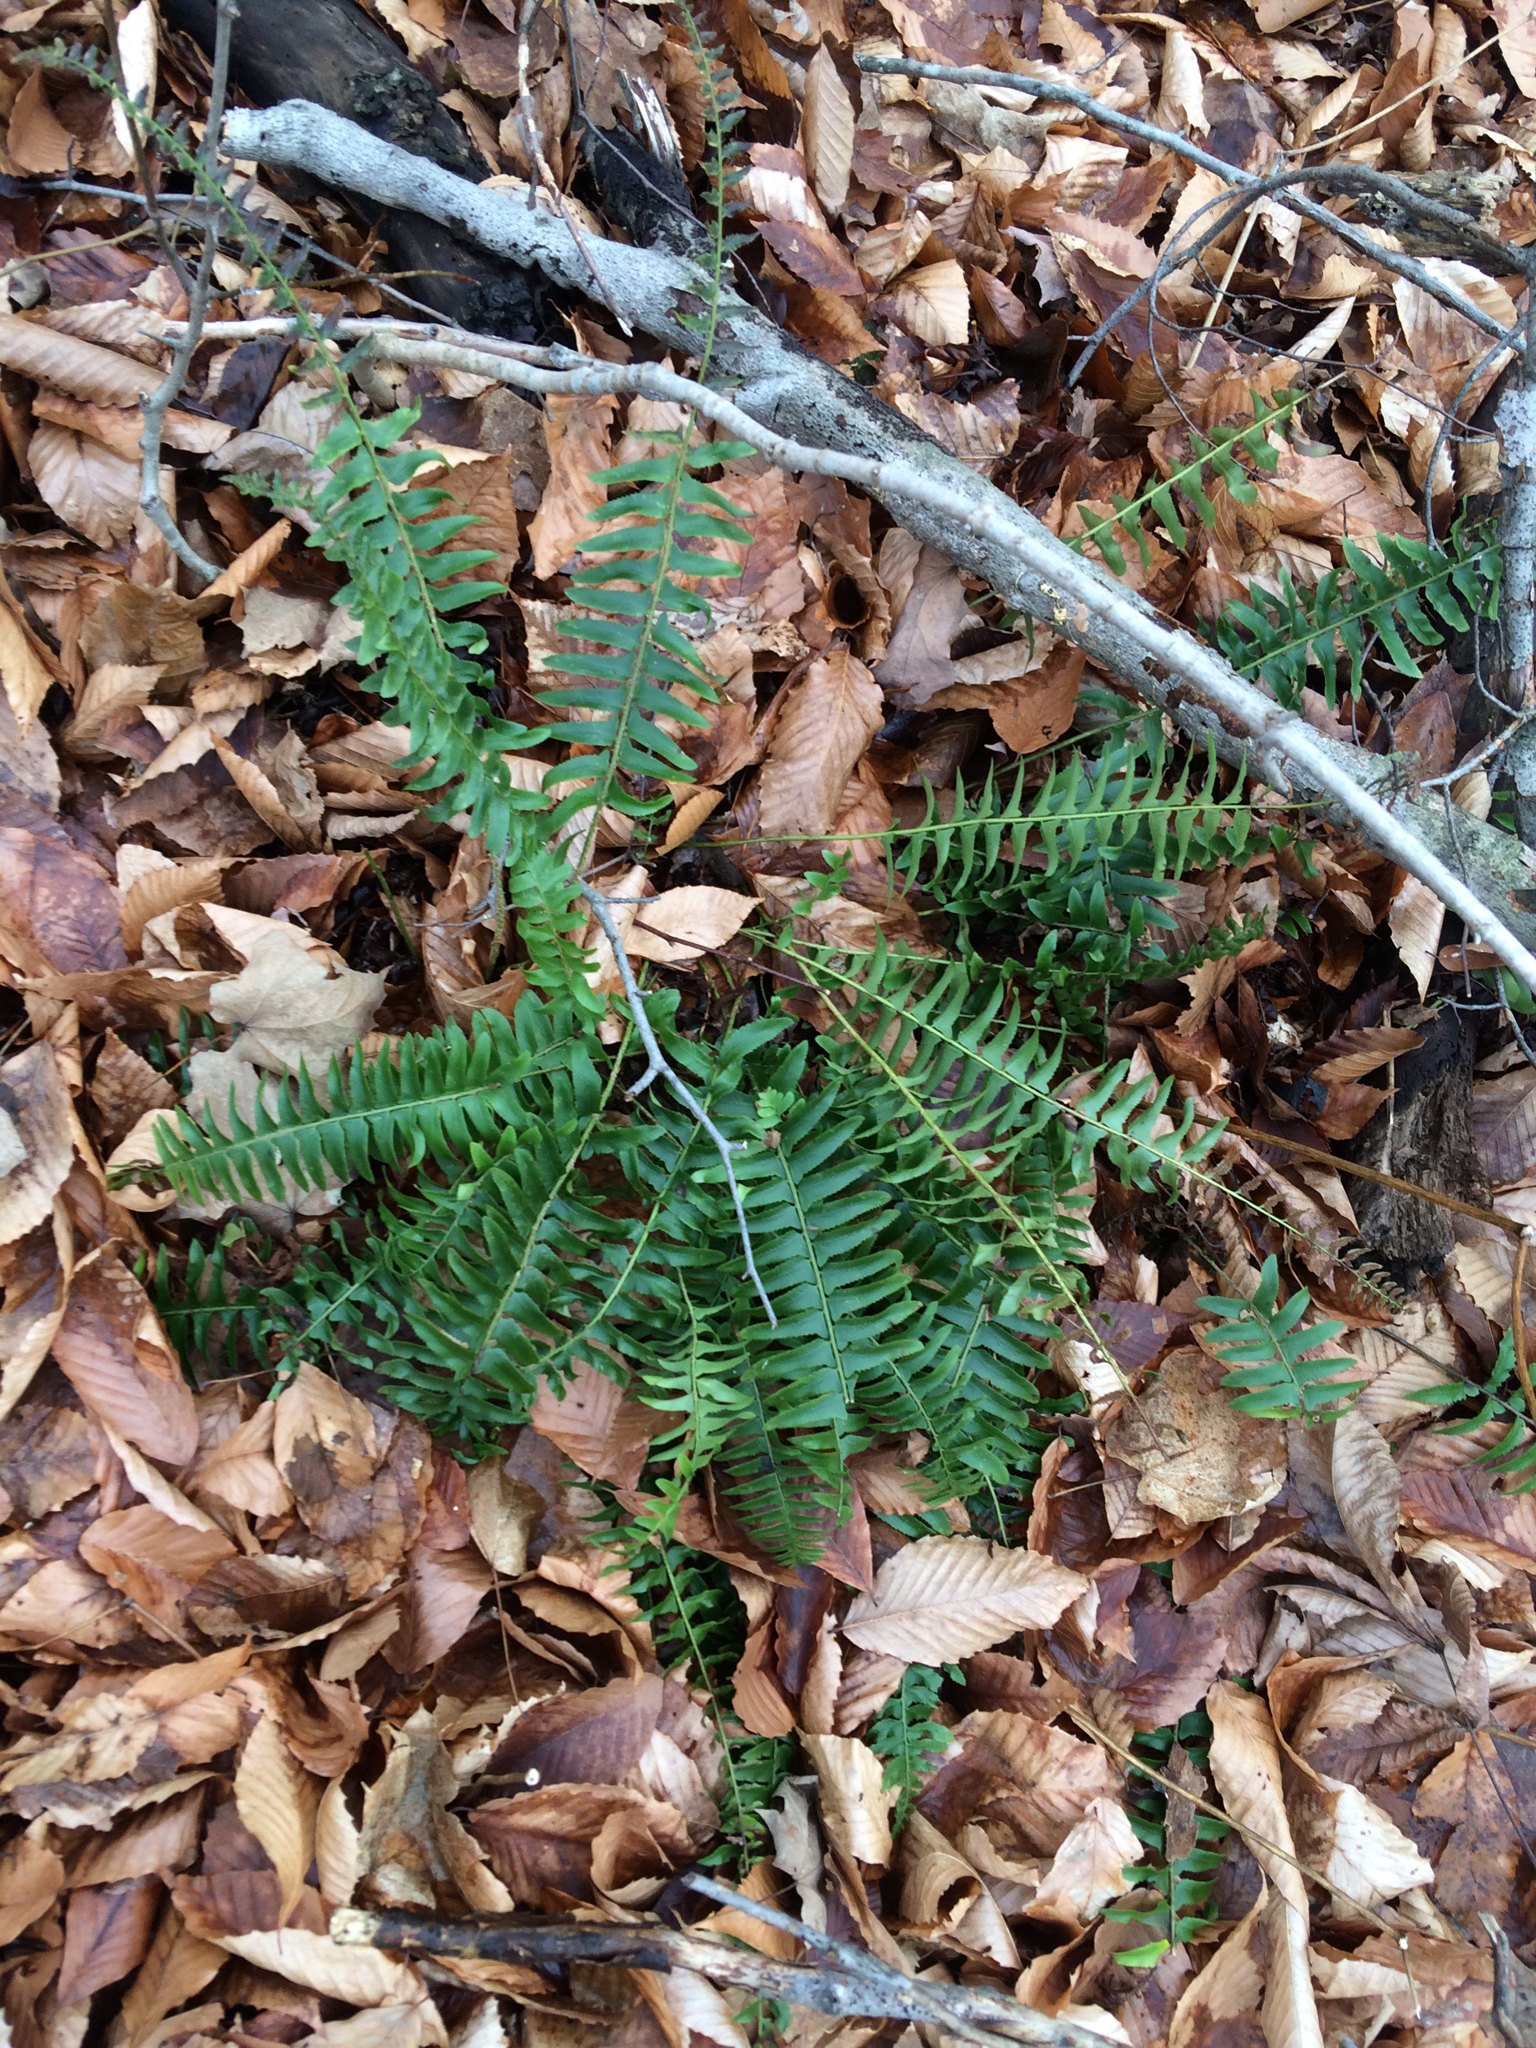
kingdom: Plantae
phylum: Tracheophyta
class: Polypodiopsida
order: Polypodiales
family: Dryopteridaceae
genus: Polystichum
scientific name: Polystichum acrostichoides
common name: Christmas fern
